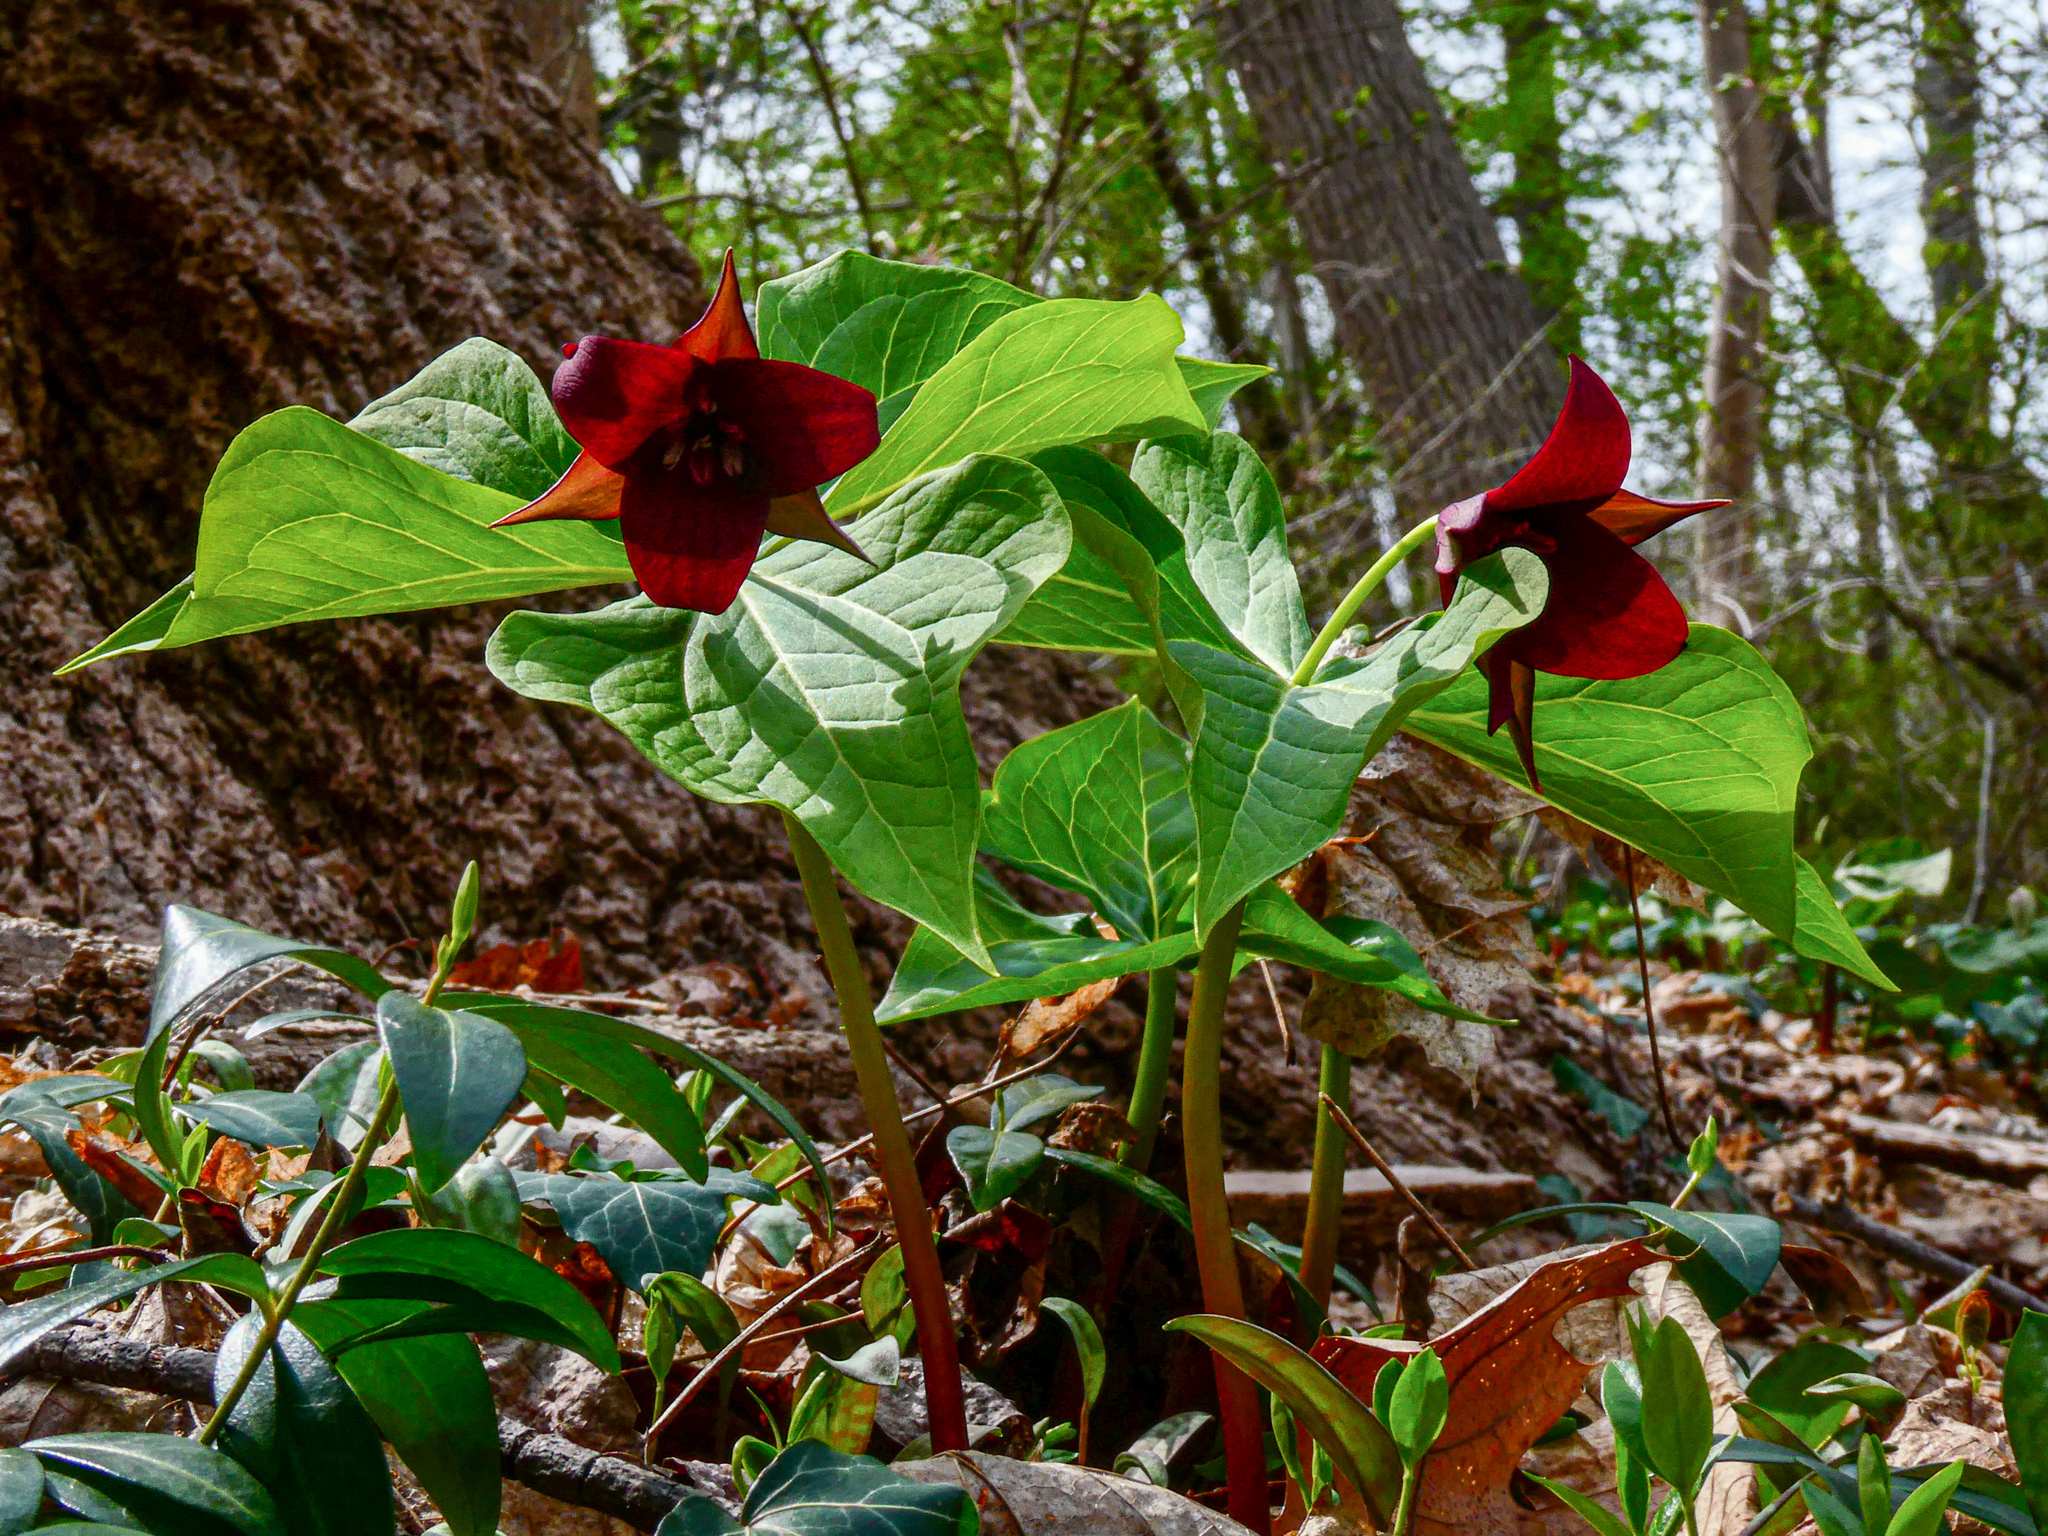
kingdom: Plantae
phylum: Tracheophyta
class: Liliopsida
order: Liliales
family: Melanthiaceae
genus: Trillium
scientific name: Trillium erectum
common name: Purple trillium
